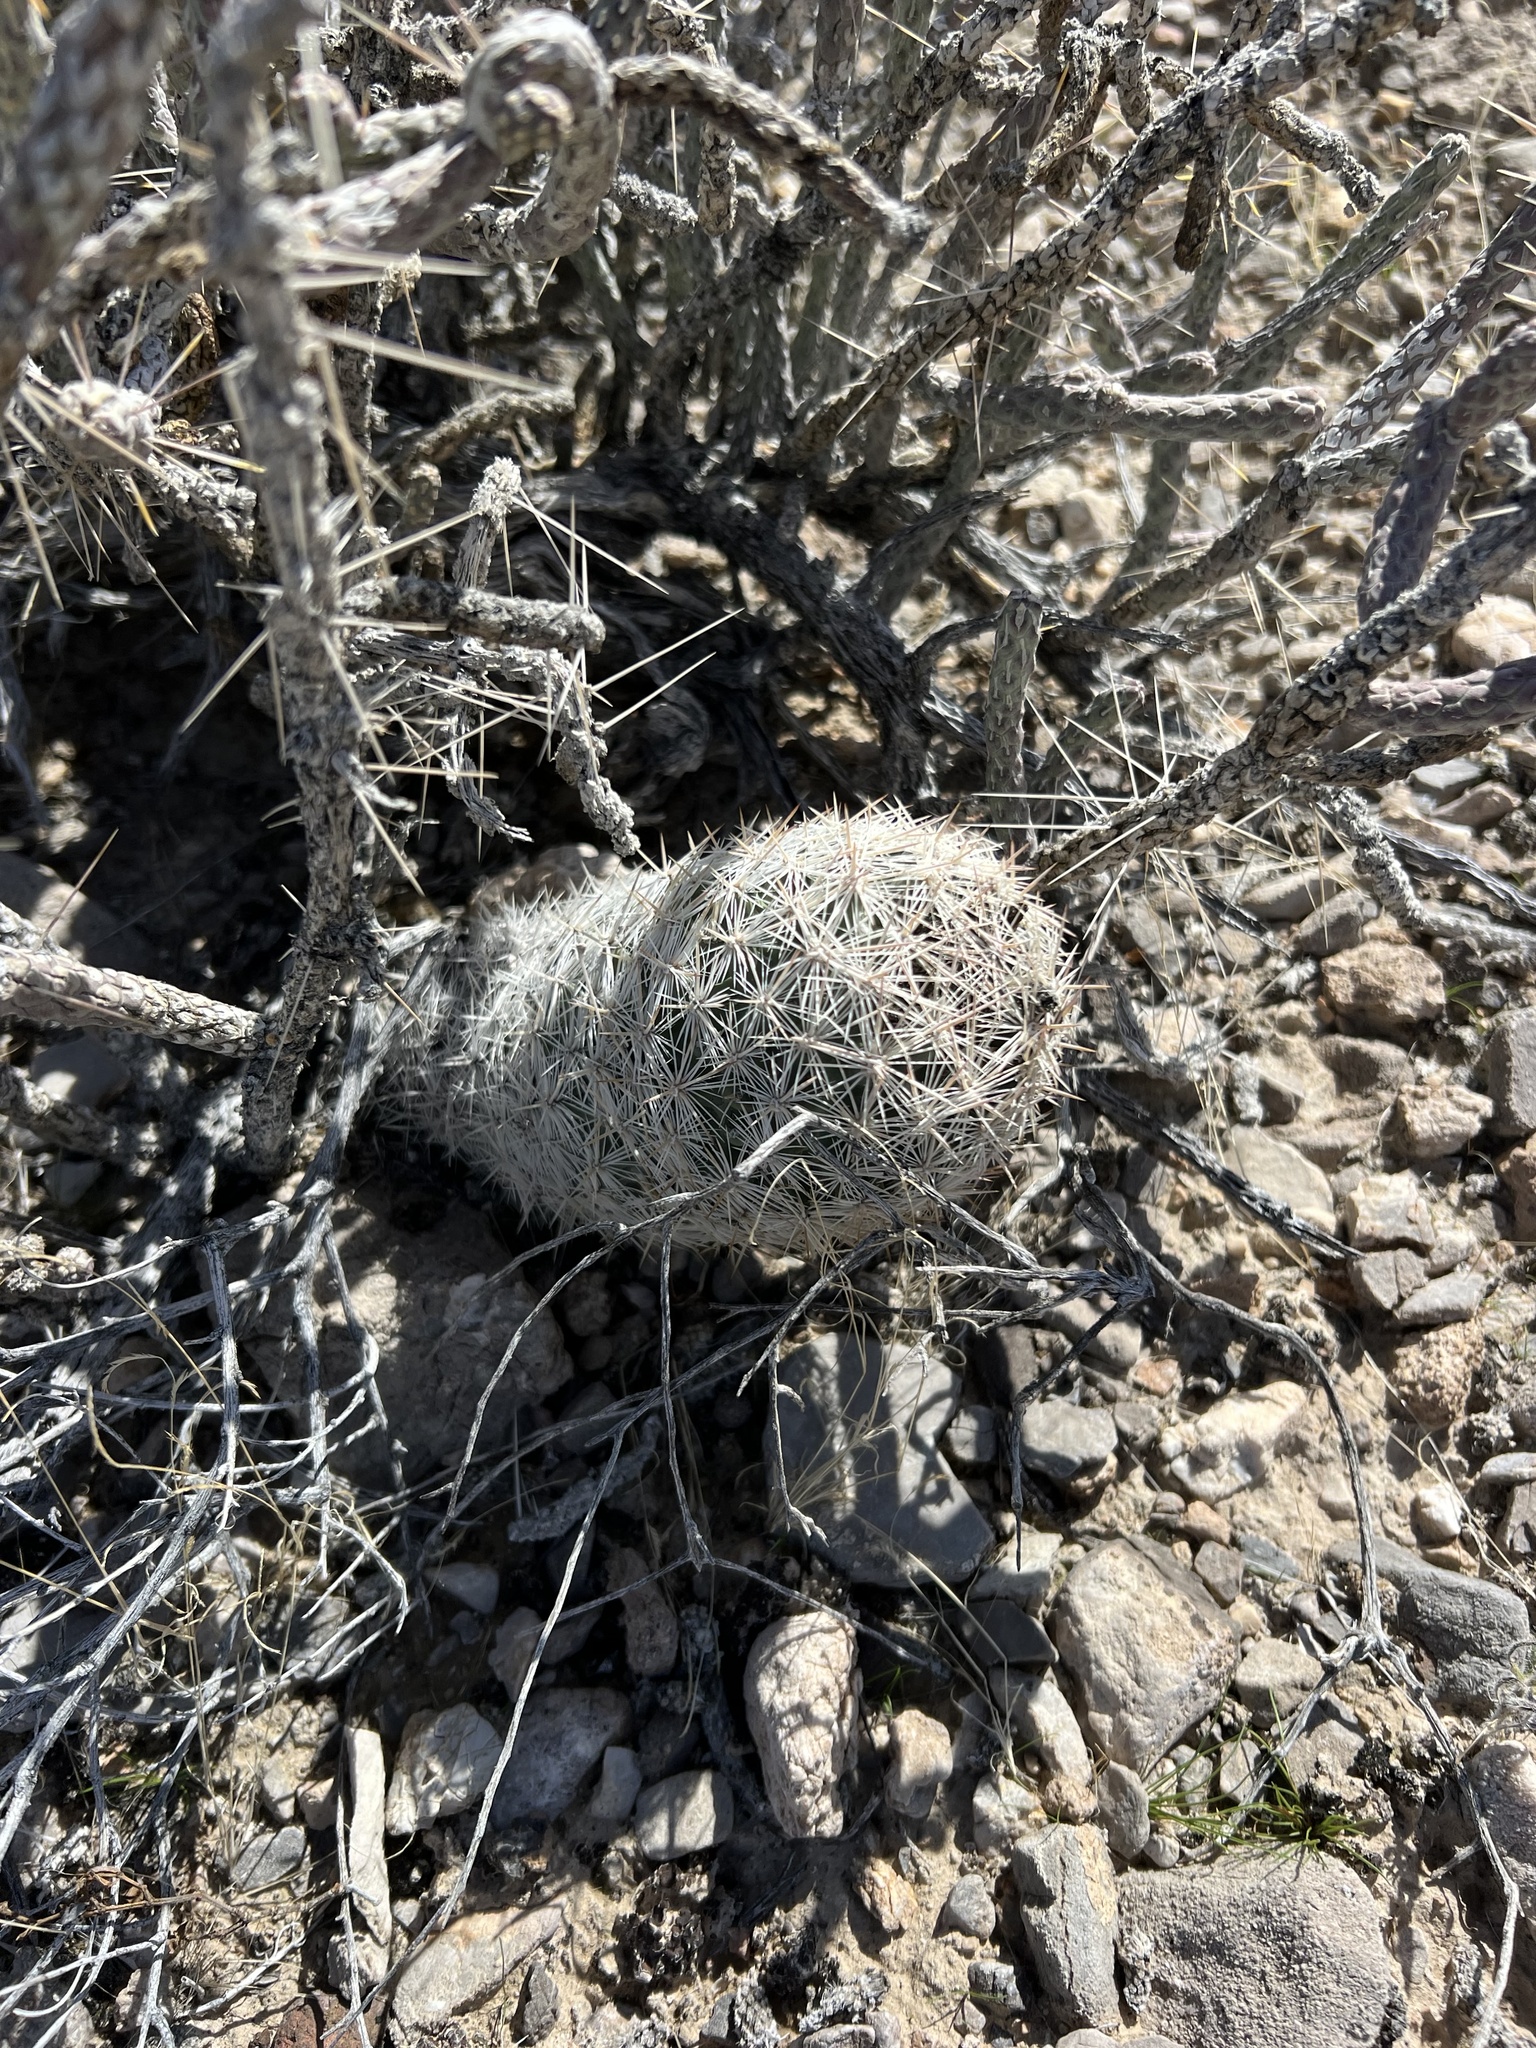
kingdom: Plantae
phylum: Tracheophyta
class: Magnoliopsida
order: Caryophyllales
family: Cactaceae
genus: Pelecyphora
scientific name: Pelecyphora dasyacantha
